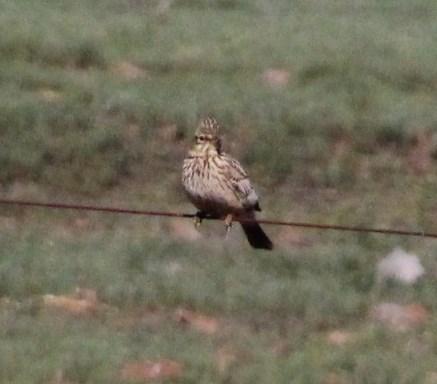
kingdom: Animalia
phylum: Chordata
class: Aves
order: Passeriformes
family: Alaudidae
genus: Galerida
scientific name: Galerida magnirostris
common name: Large-billed lark
